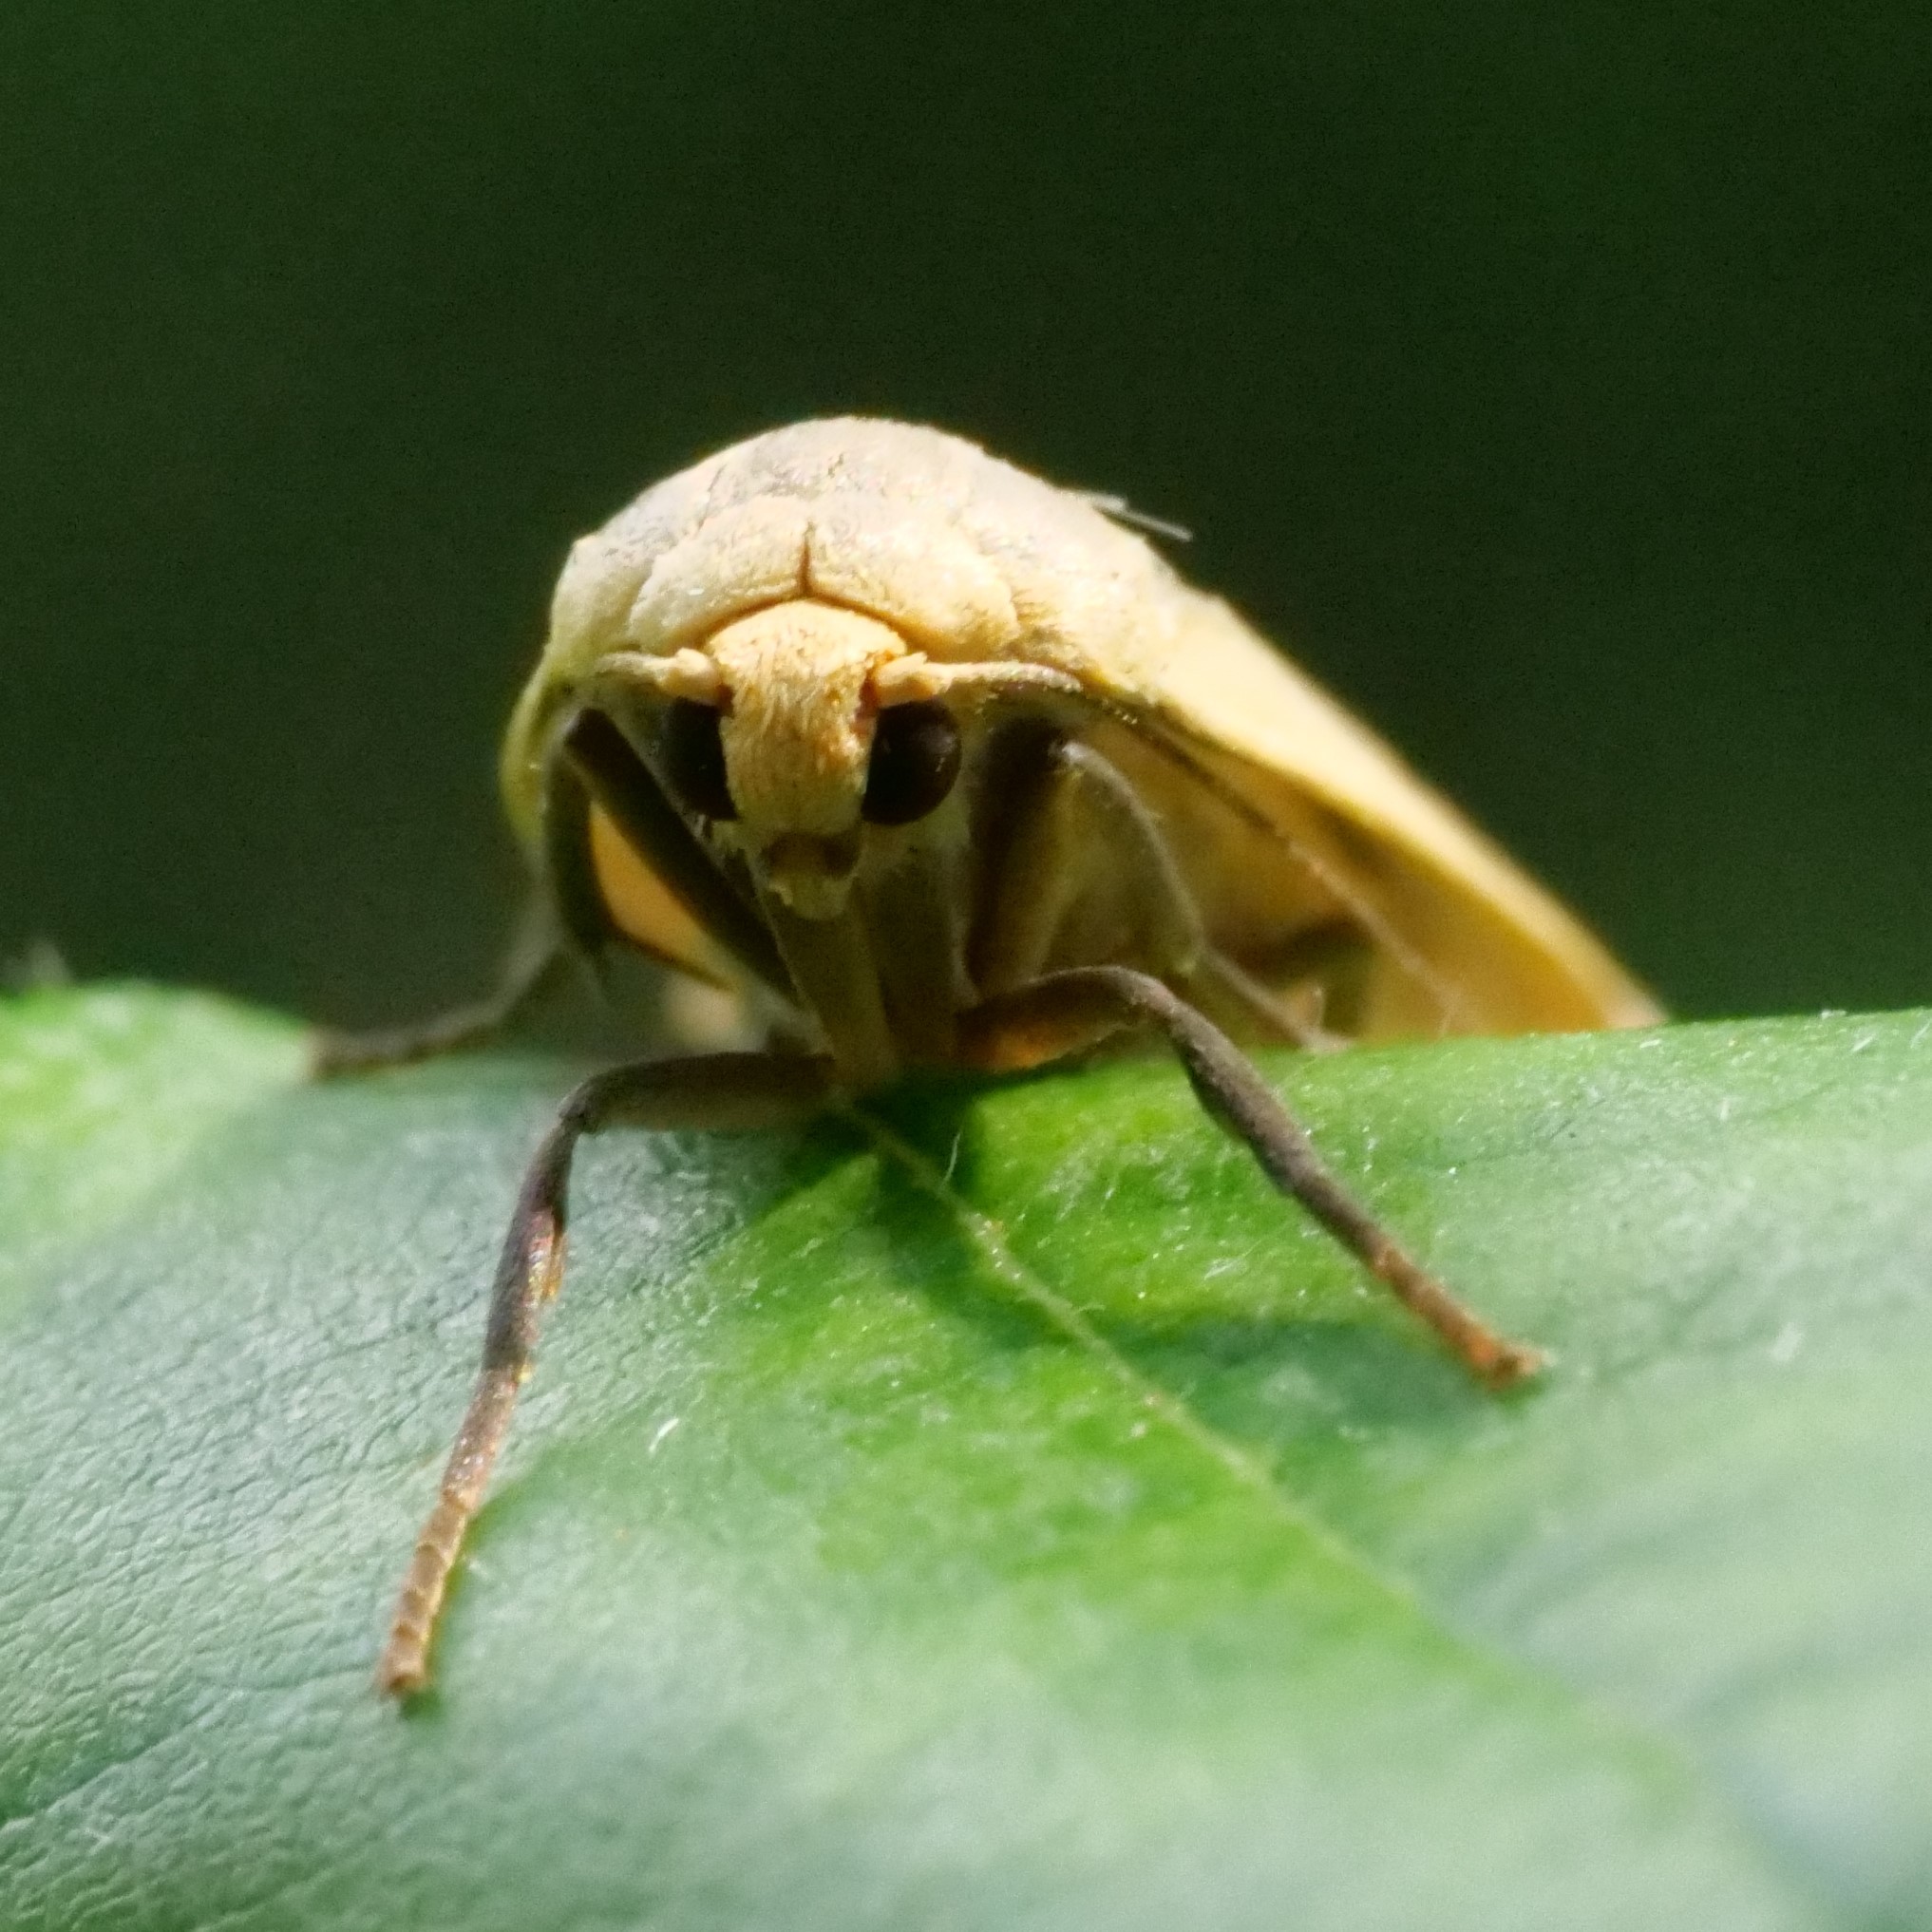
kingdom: Animalia
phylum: Arthropoda
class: Insecta
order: Lepidoptera
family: Erebidae
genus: Collita
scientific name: Collita griseola
